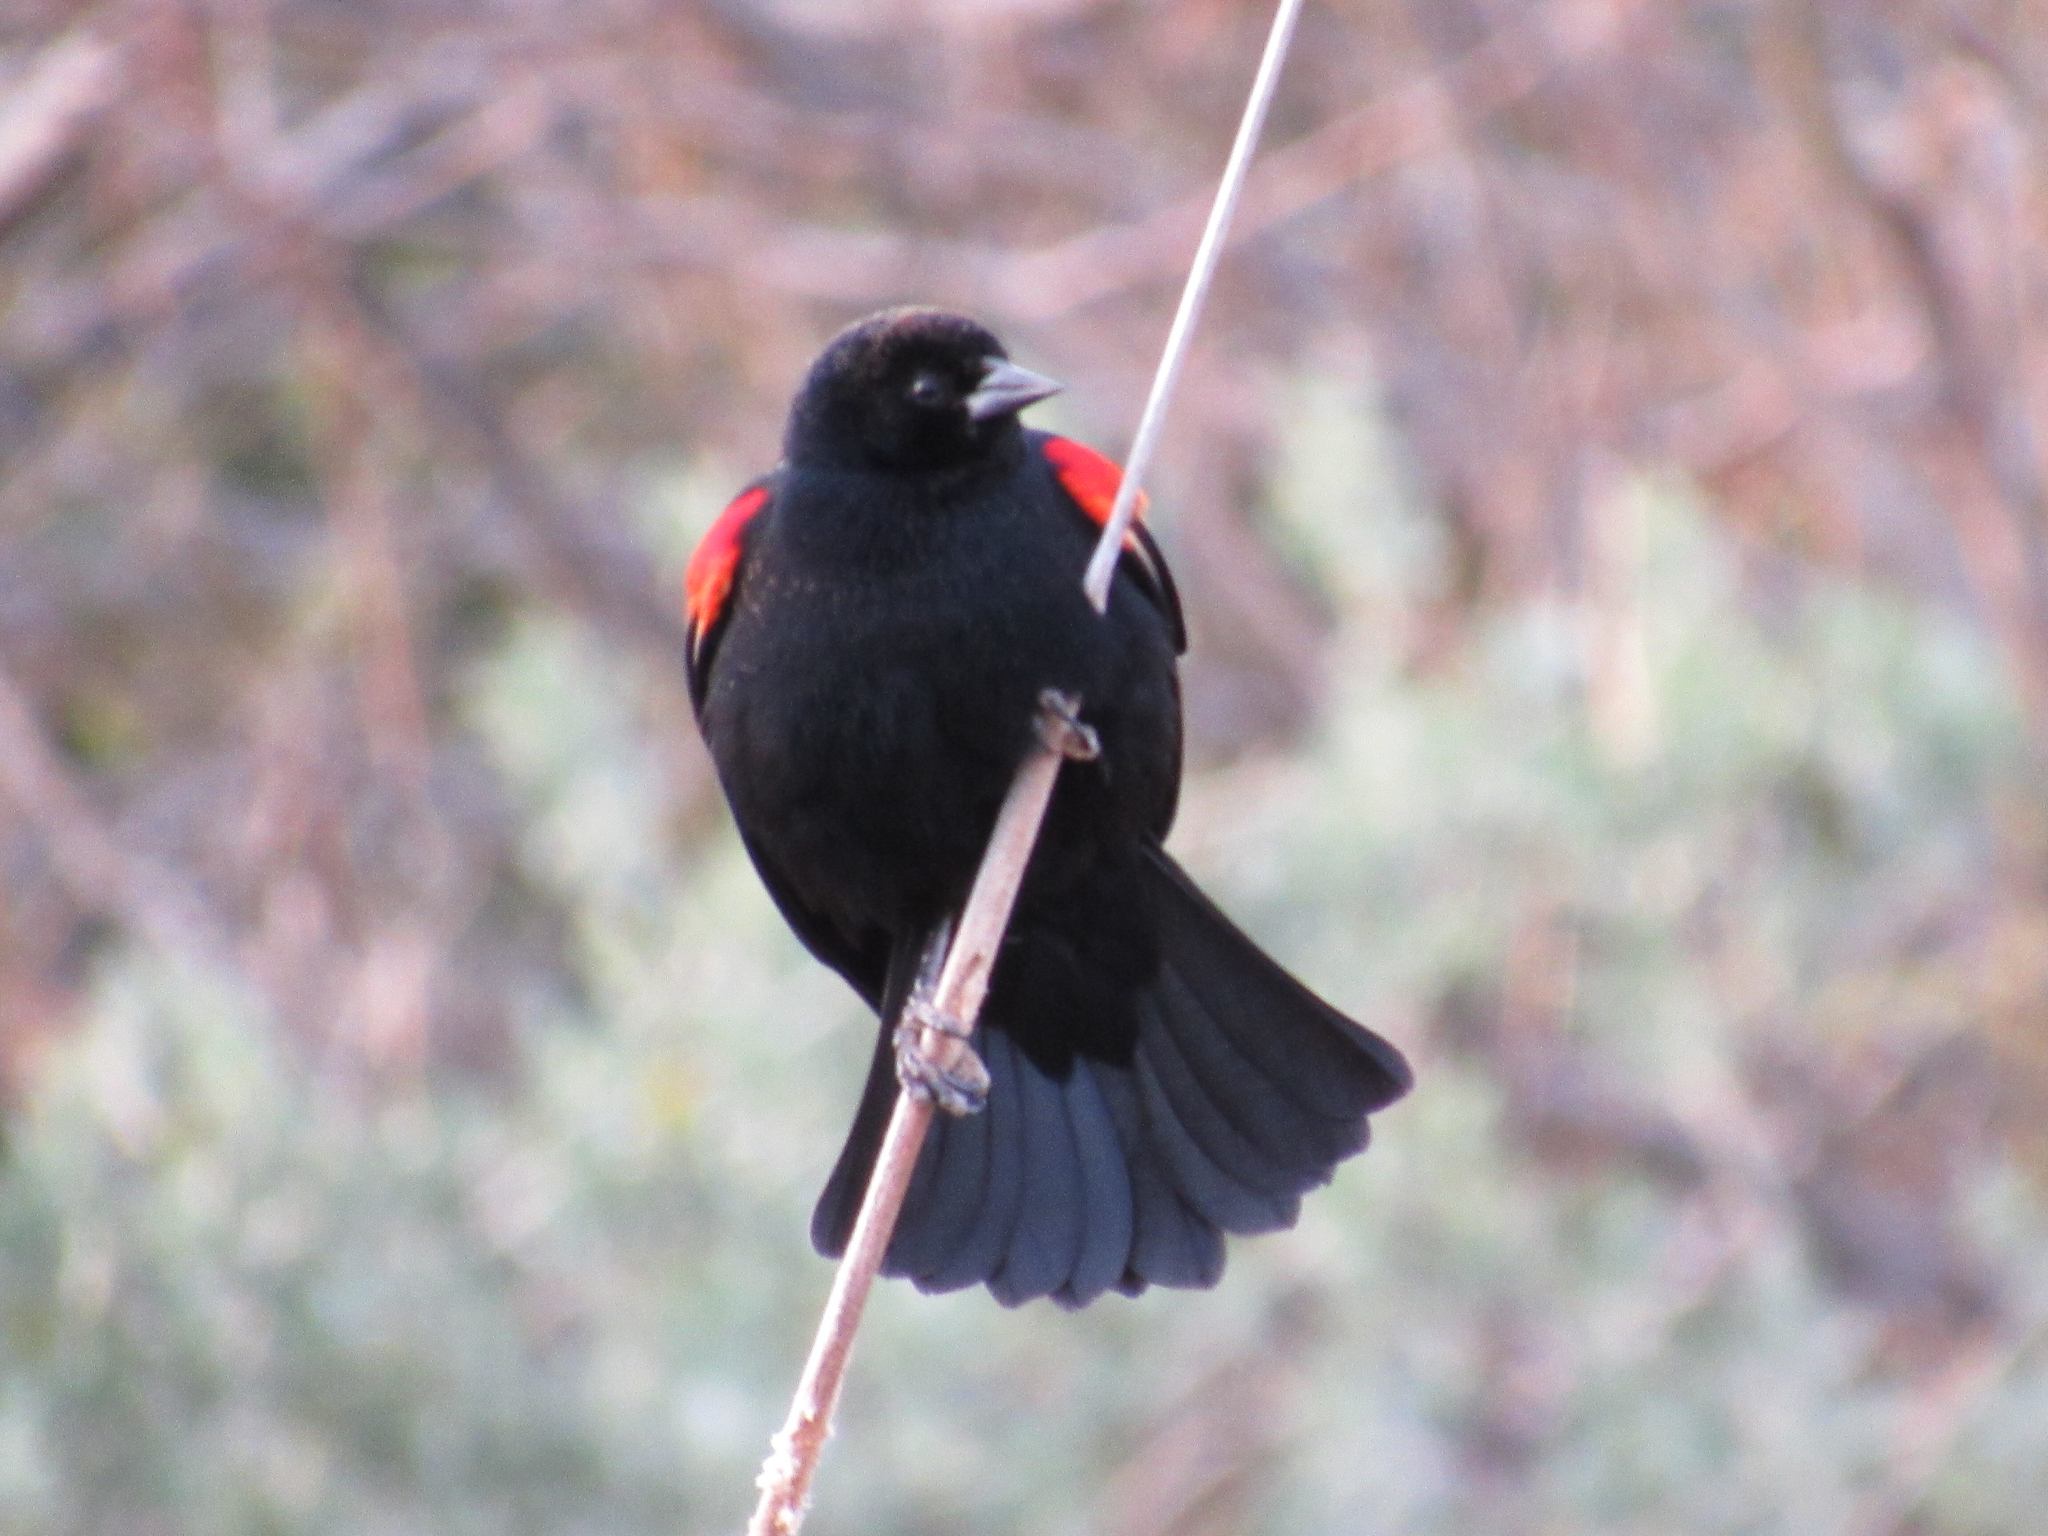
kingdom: Animalia
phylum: Chordata
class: Aves
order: Passeriformes
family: Icteridae
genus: Agelaius
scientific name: Agelaius phoeniceus
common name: Red-winged blackbird
